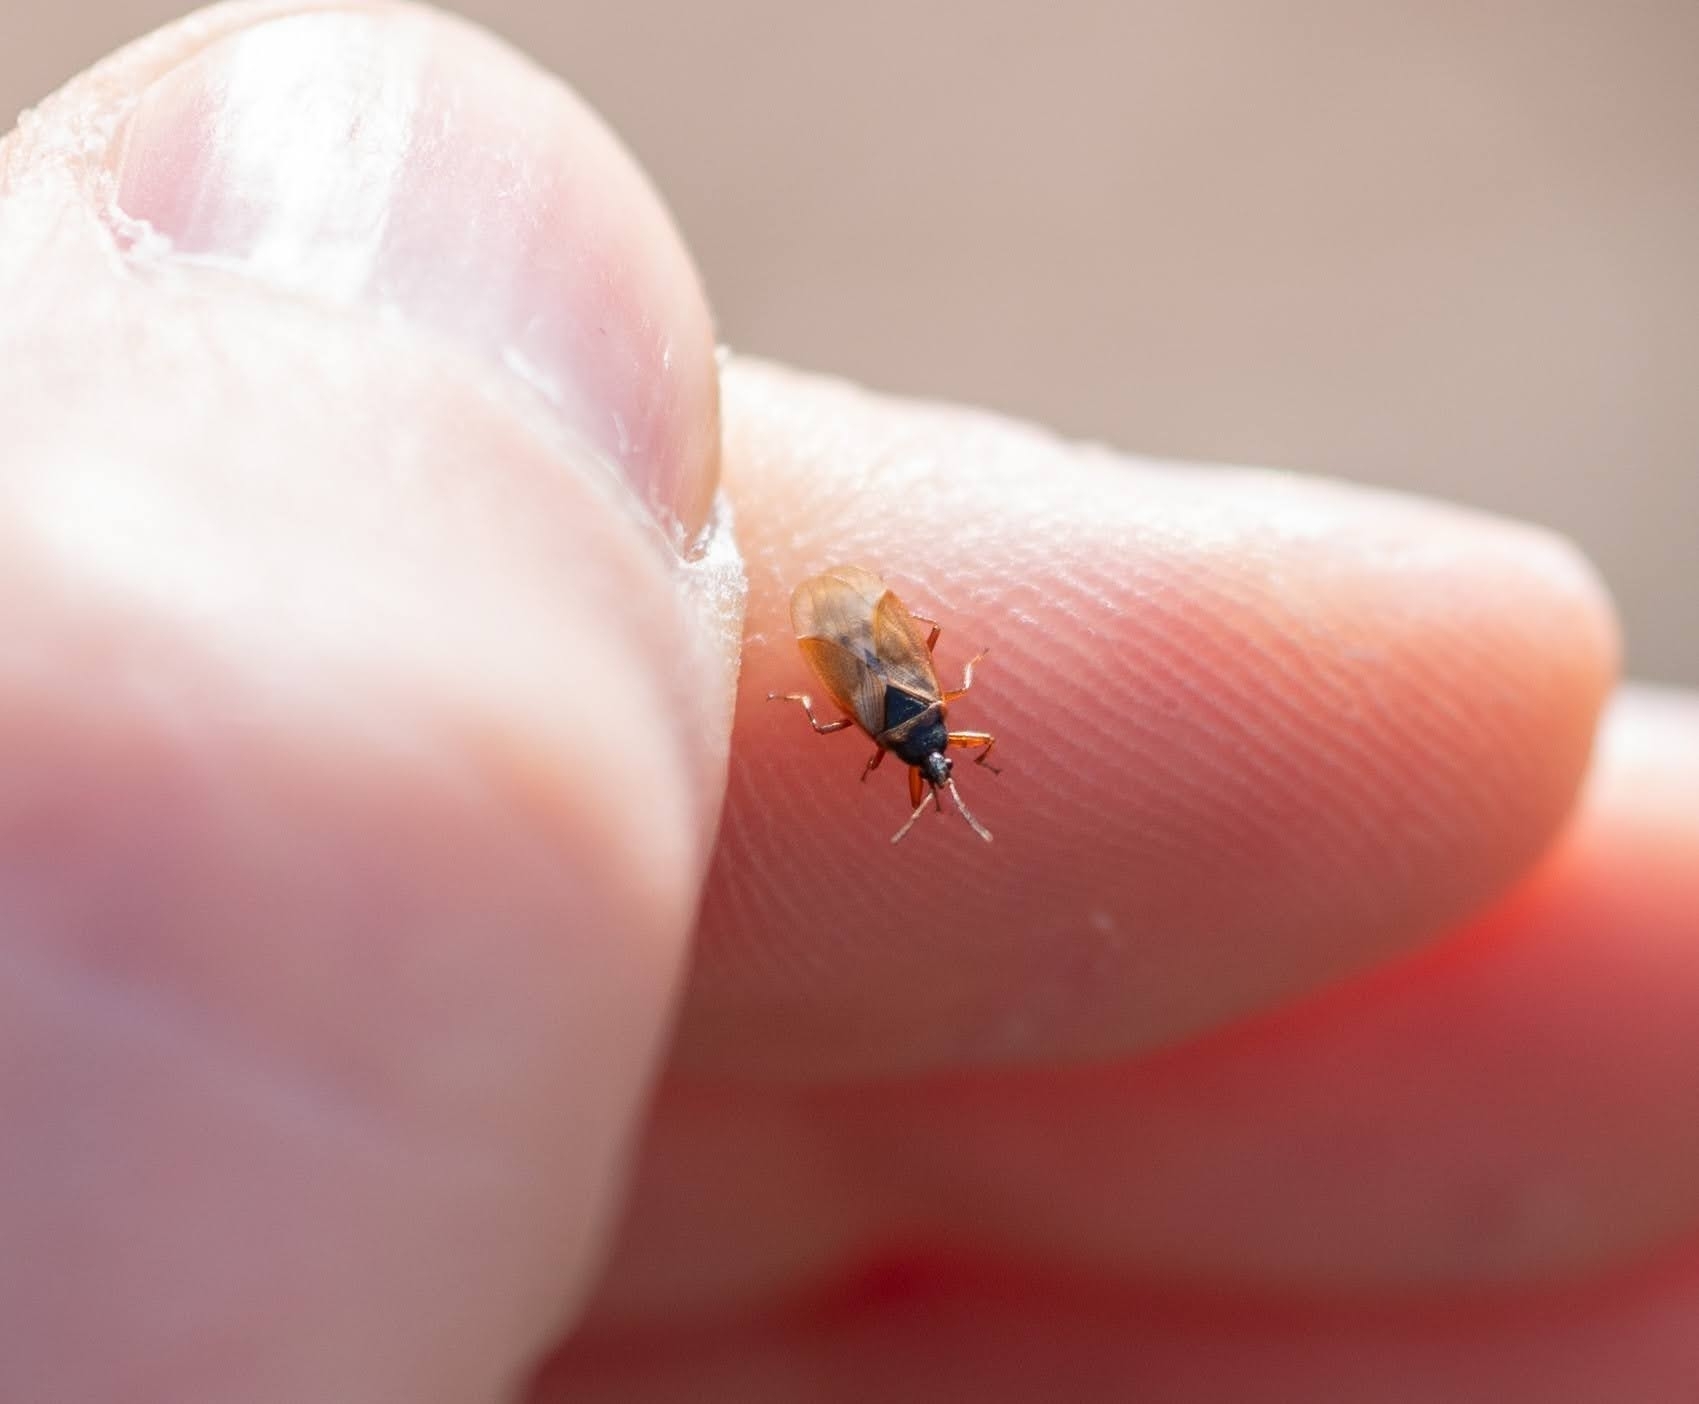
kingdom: Animalia
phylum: Arthropoda
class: Insecta
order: Hemiptera
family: Rhyparochromidae
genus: Gastrodes
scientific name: Gastrodes abietum
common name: Spruce cone bug
